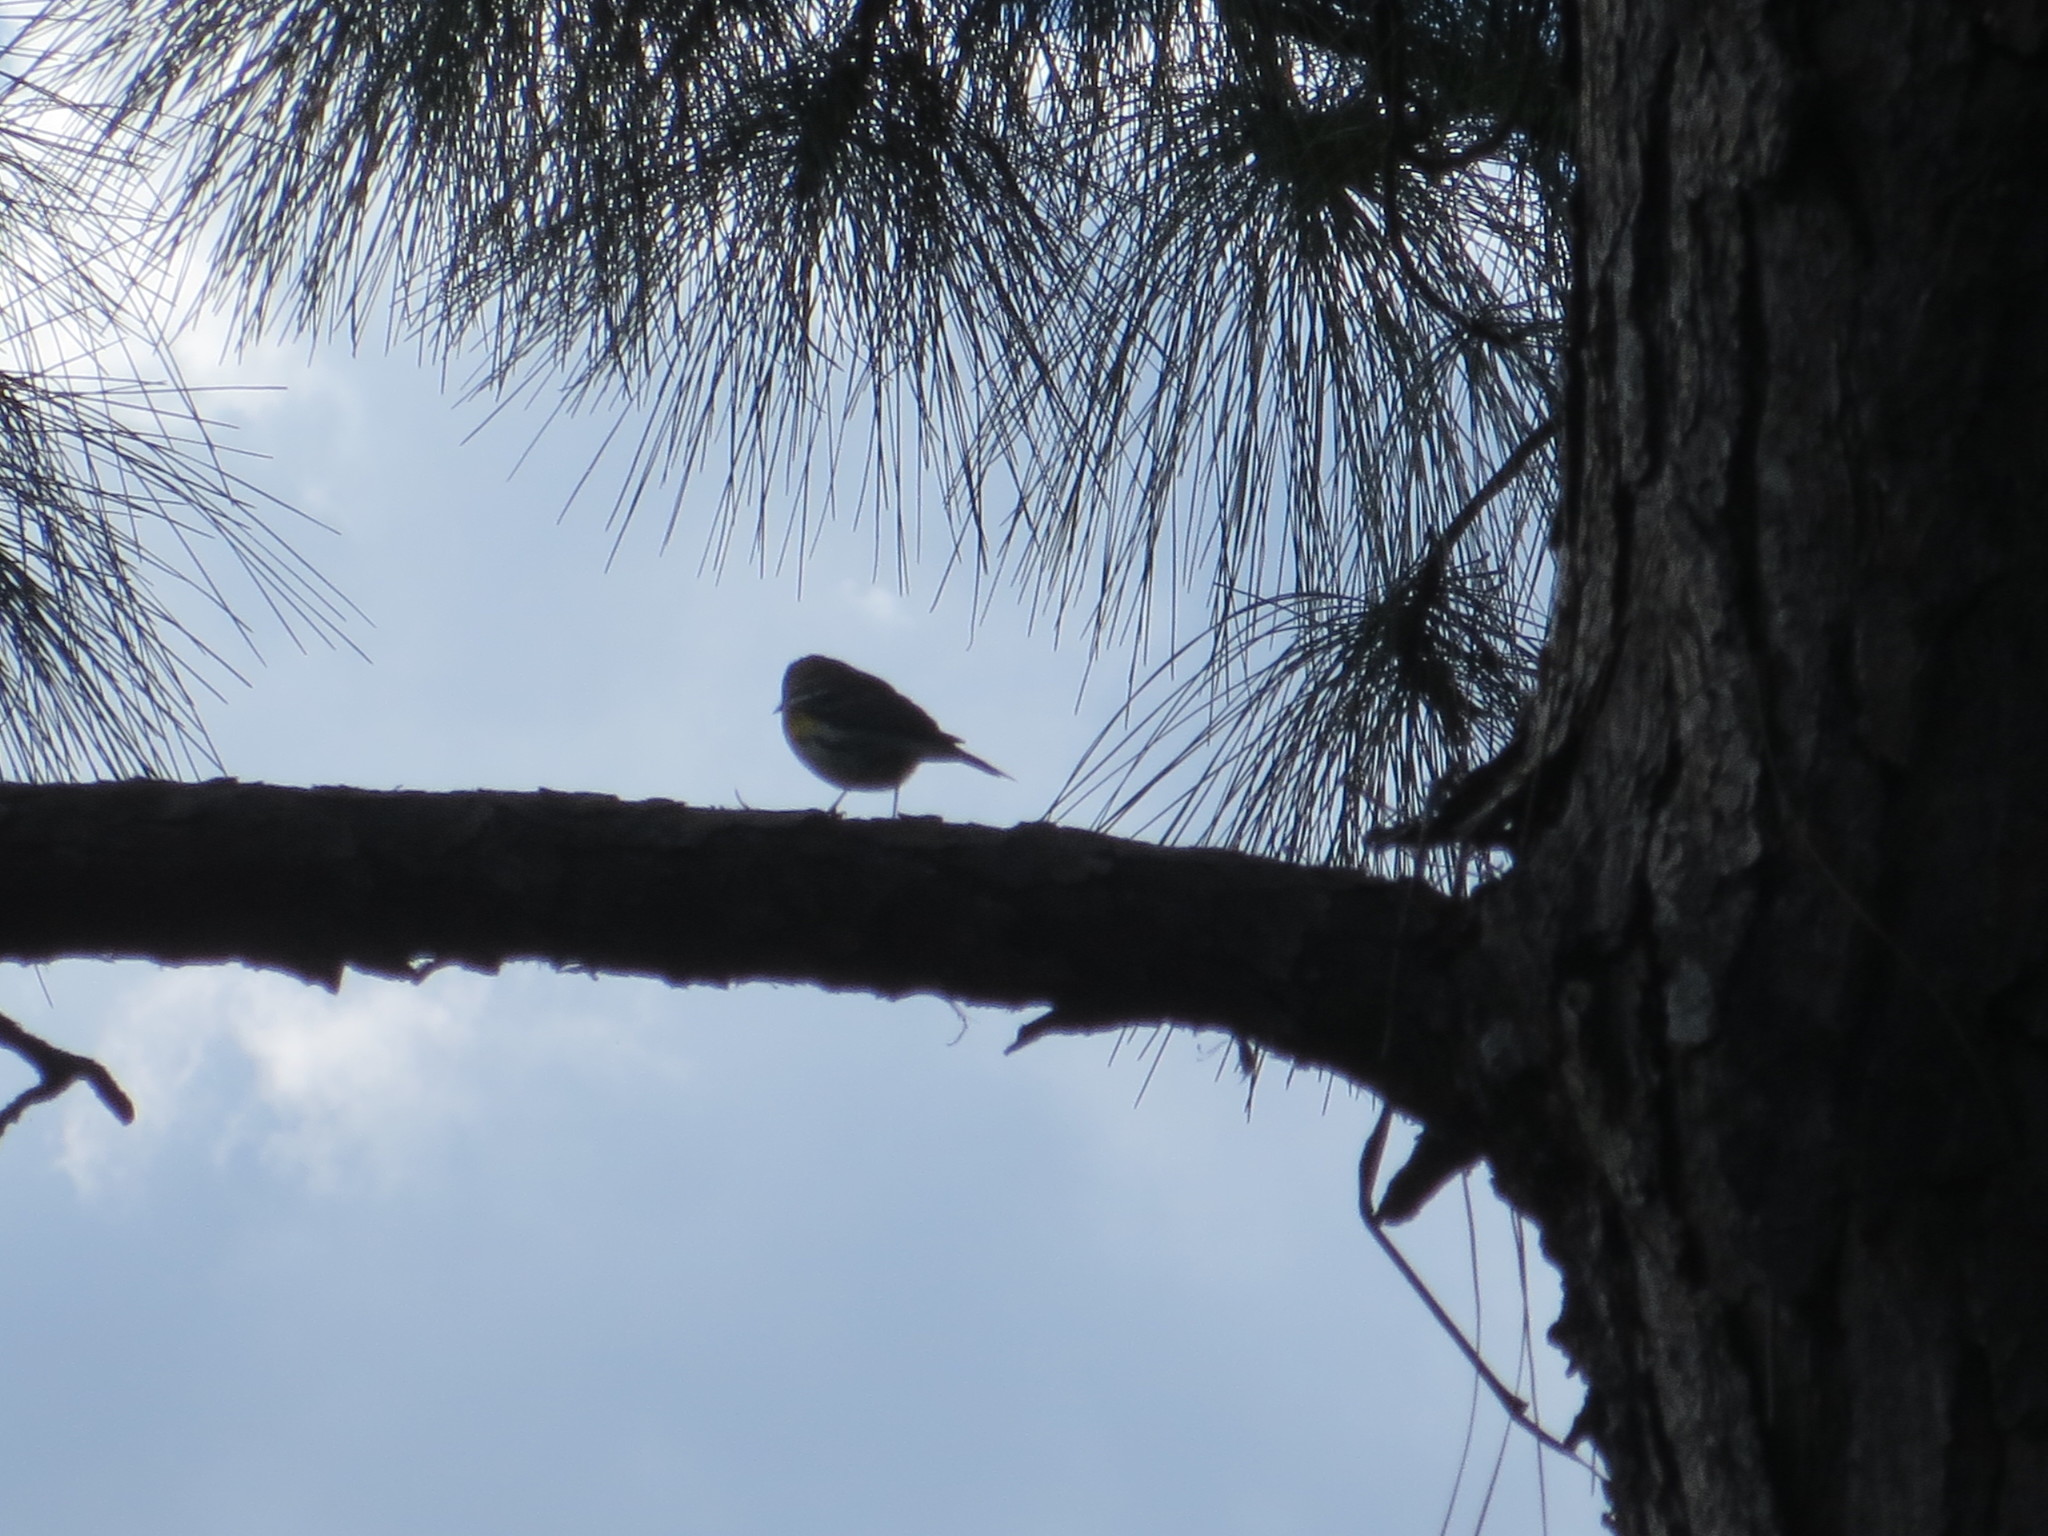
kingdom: Animalia
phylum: Chordata
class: Aves
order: Passeriformes
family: Parulidae
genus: Setophaga
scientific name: Setophaga coronata
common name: Myrtle warbler
